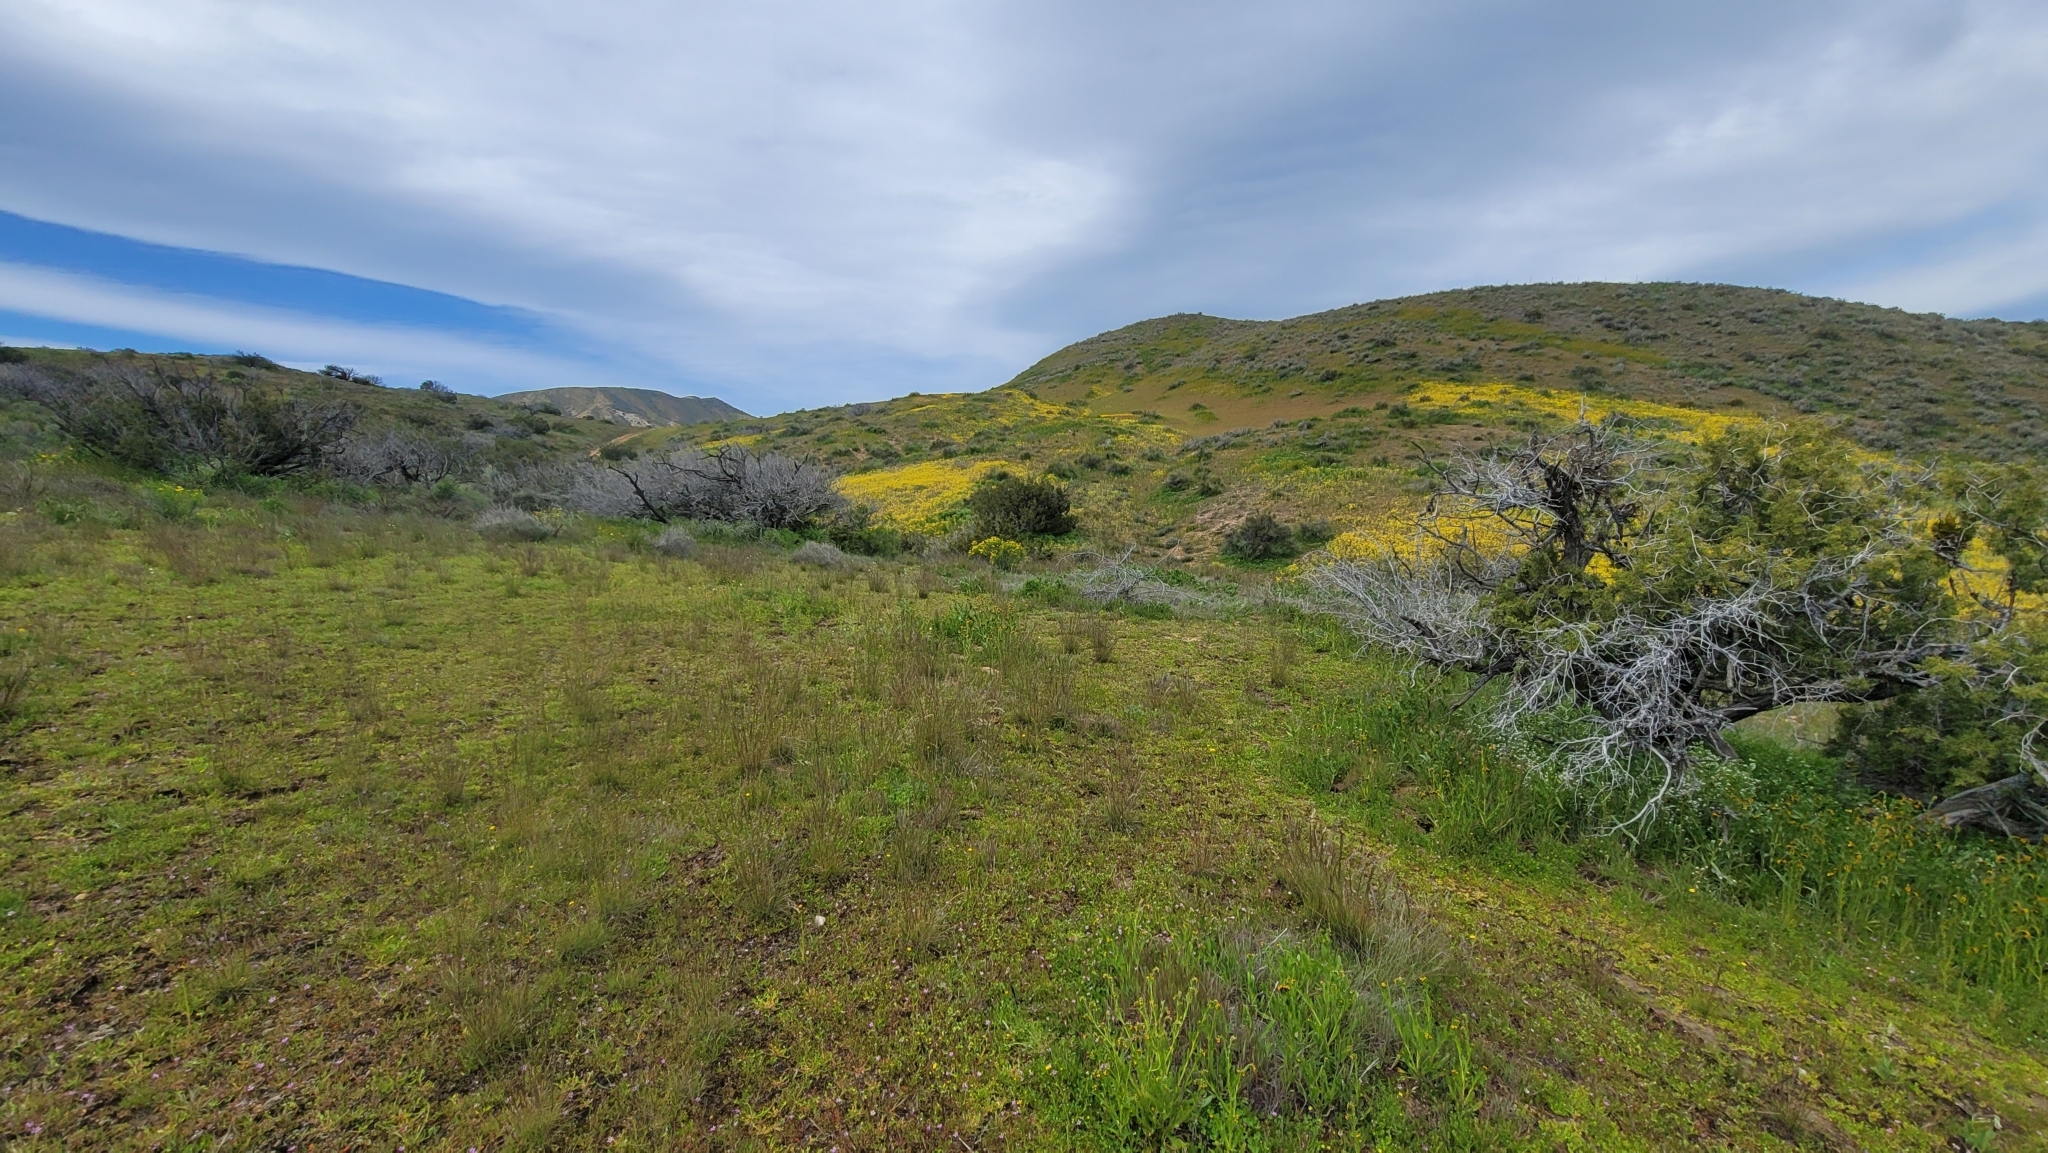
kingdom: Plantae
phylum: Tracheophyta
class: Liliopsida
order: Liliales
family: Liliaceae
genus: Fritillaria
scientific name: Fritillaria agrestis
